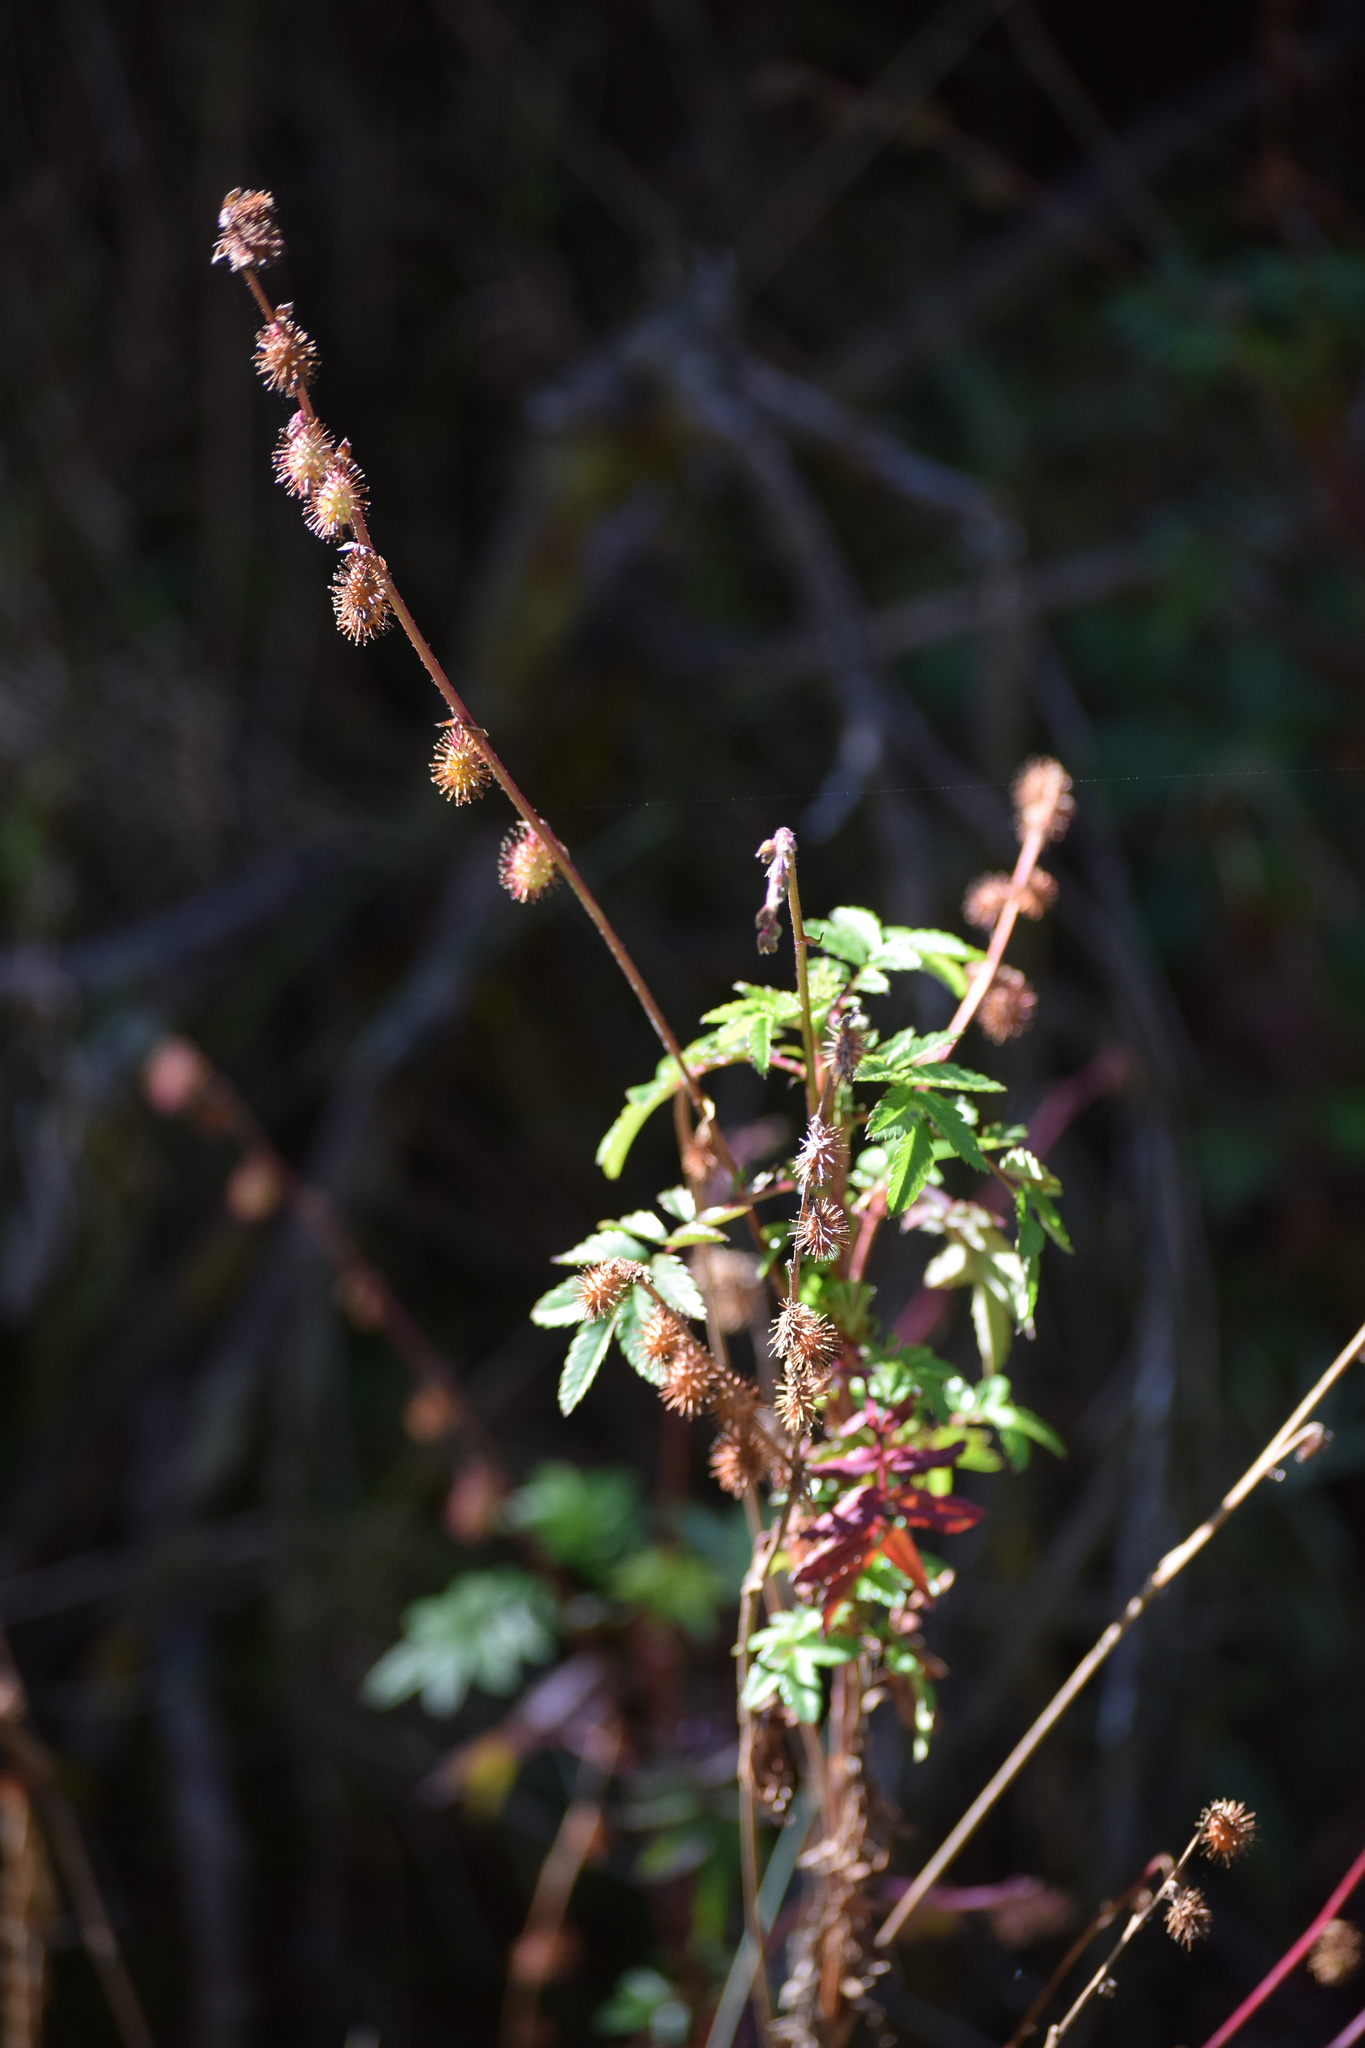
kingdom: Plantae
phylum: Tracheophyta
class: Magnoliopsida
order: Rosales
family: Rosaceae
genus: Acaena
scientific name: Acaena elongata
